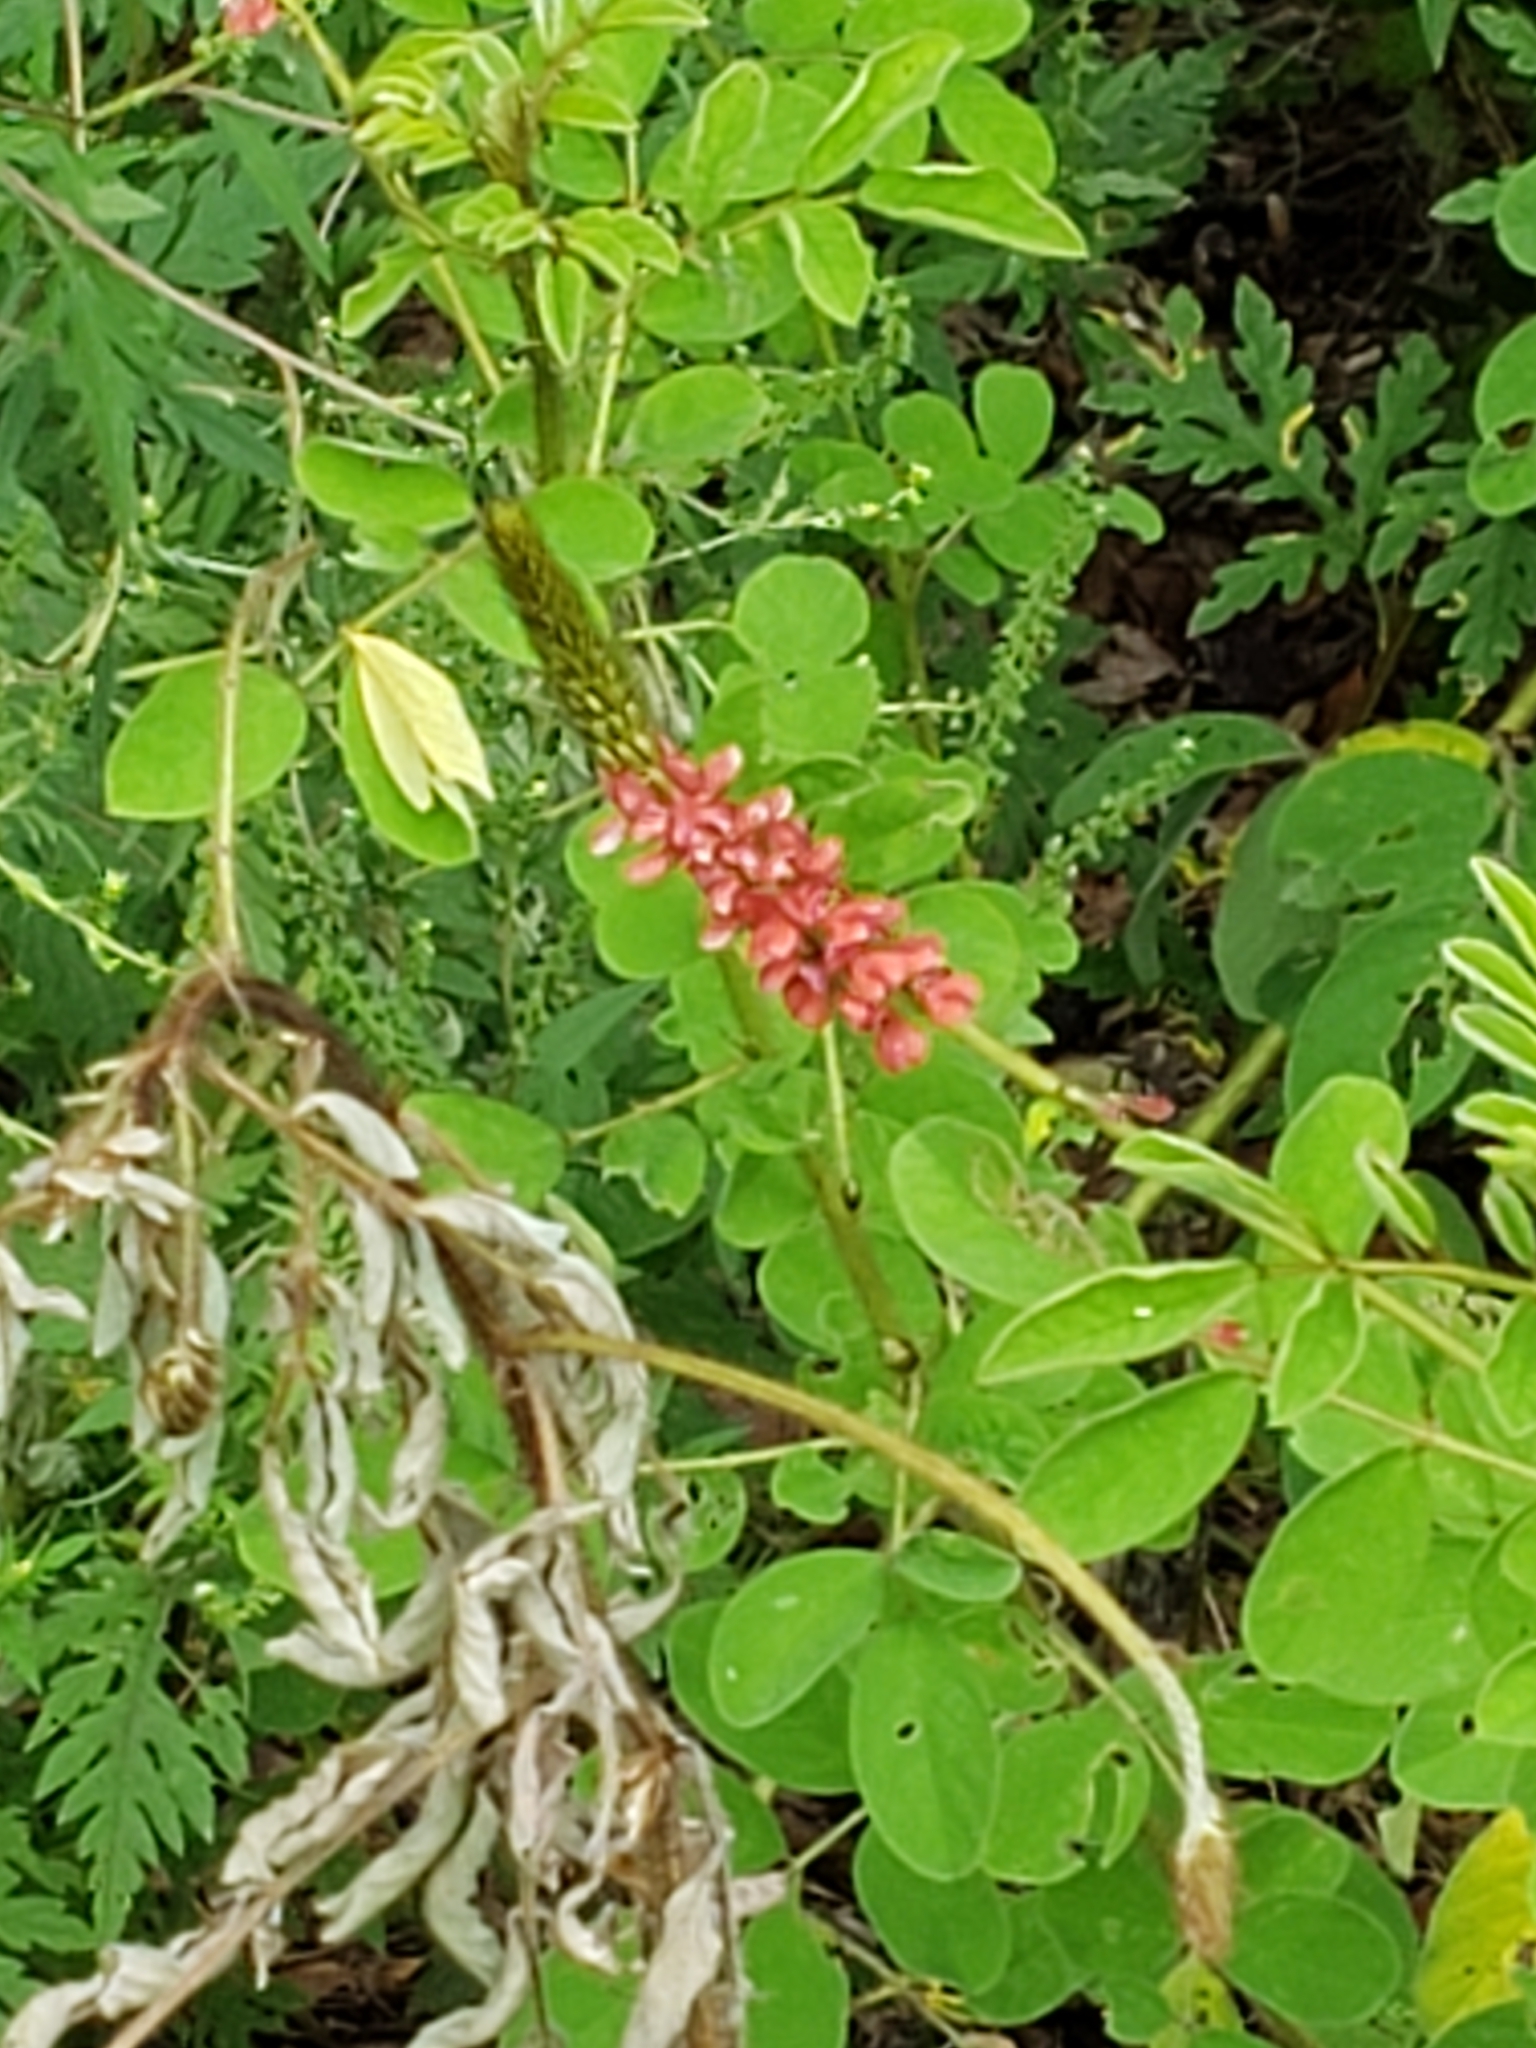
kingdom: Plantae
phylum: Tracheophyta
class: Magnoliopsida
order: Fabales
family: Fabaceae
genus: Indigofera
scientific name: Indigofera hirsuta
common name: Hairy indigo
